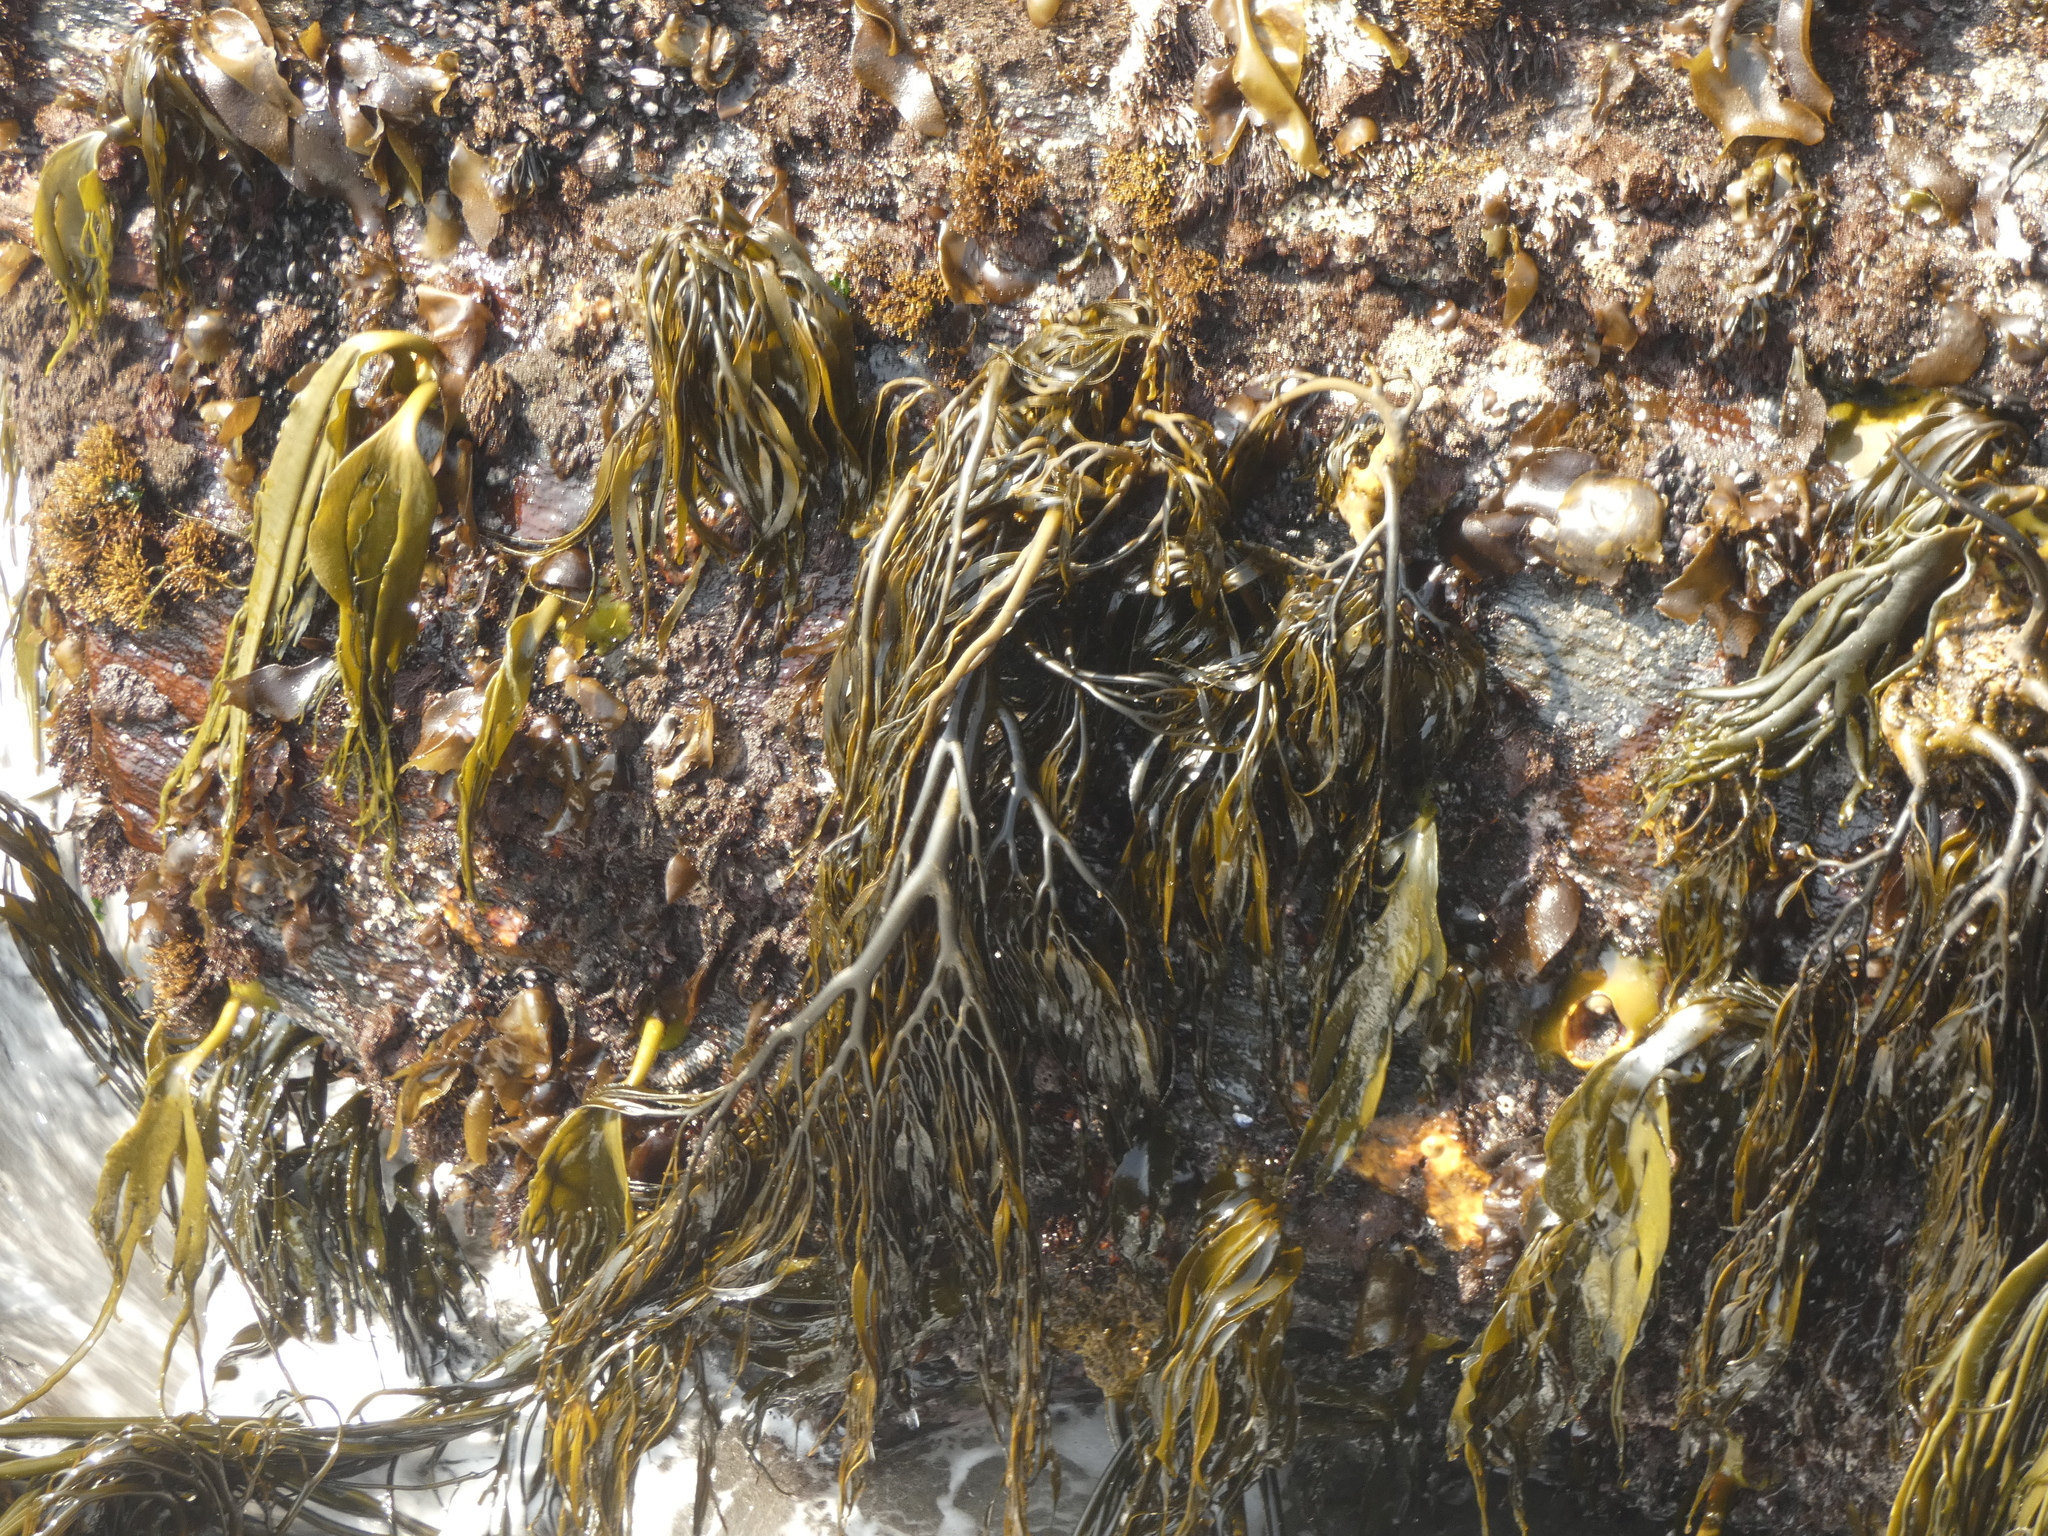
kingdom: Chromista
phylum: Ochrophyta
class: Phaeophyceae
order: Laminariales
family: Lessoniaceae
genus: Lessonia
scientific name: Lessonia spicata
